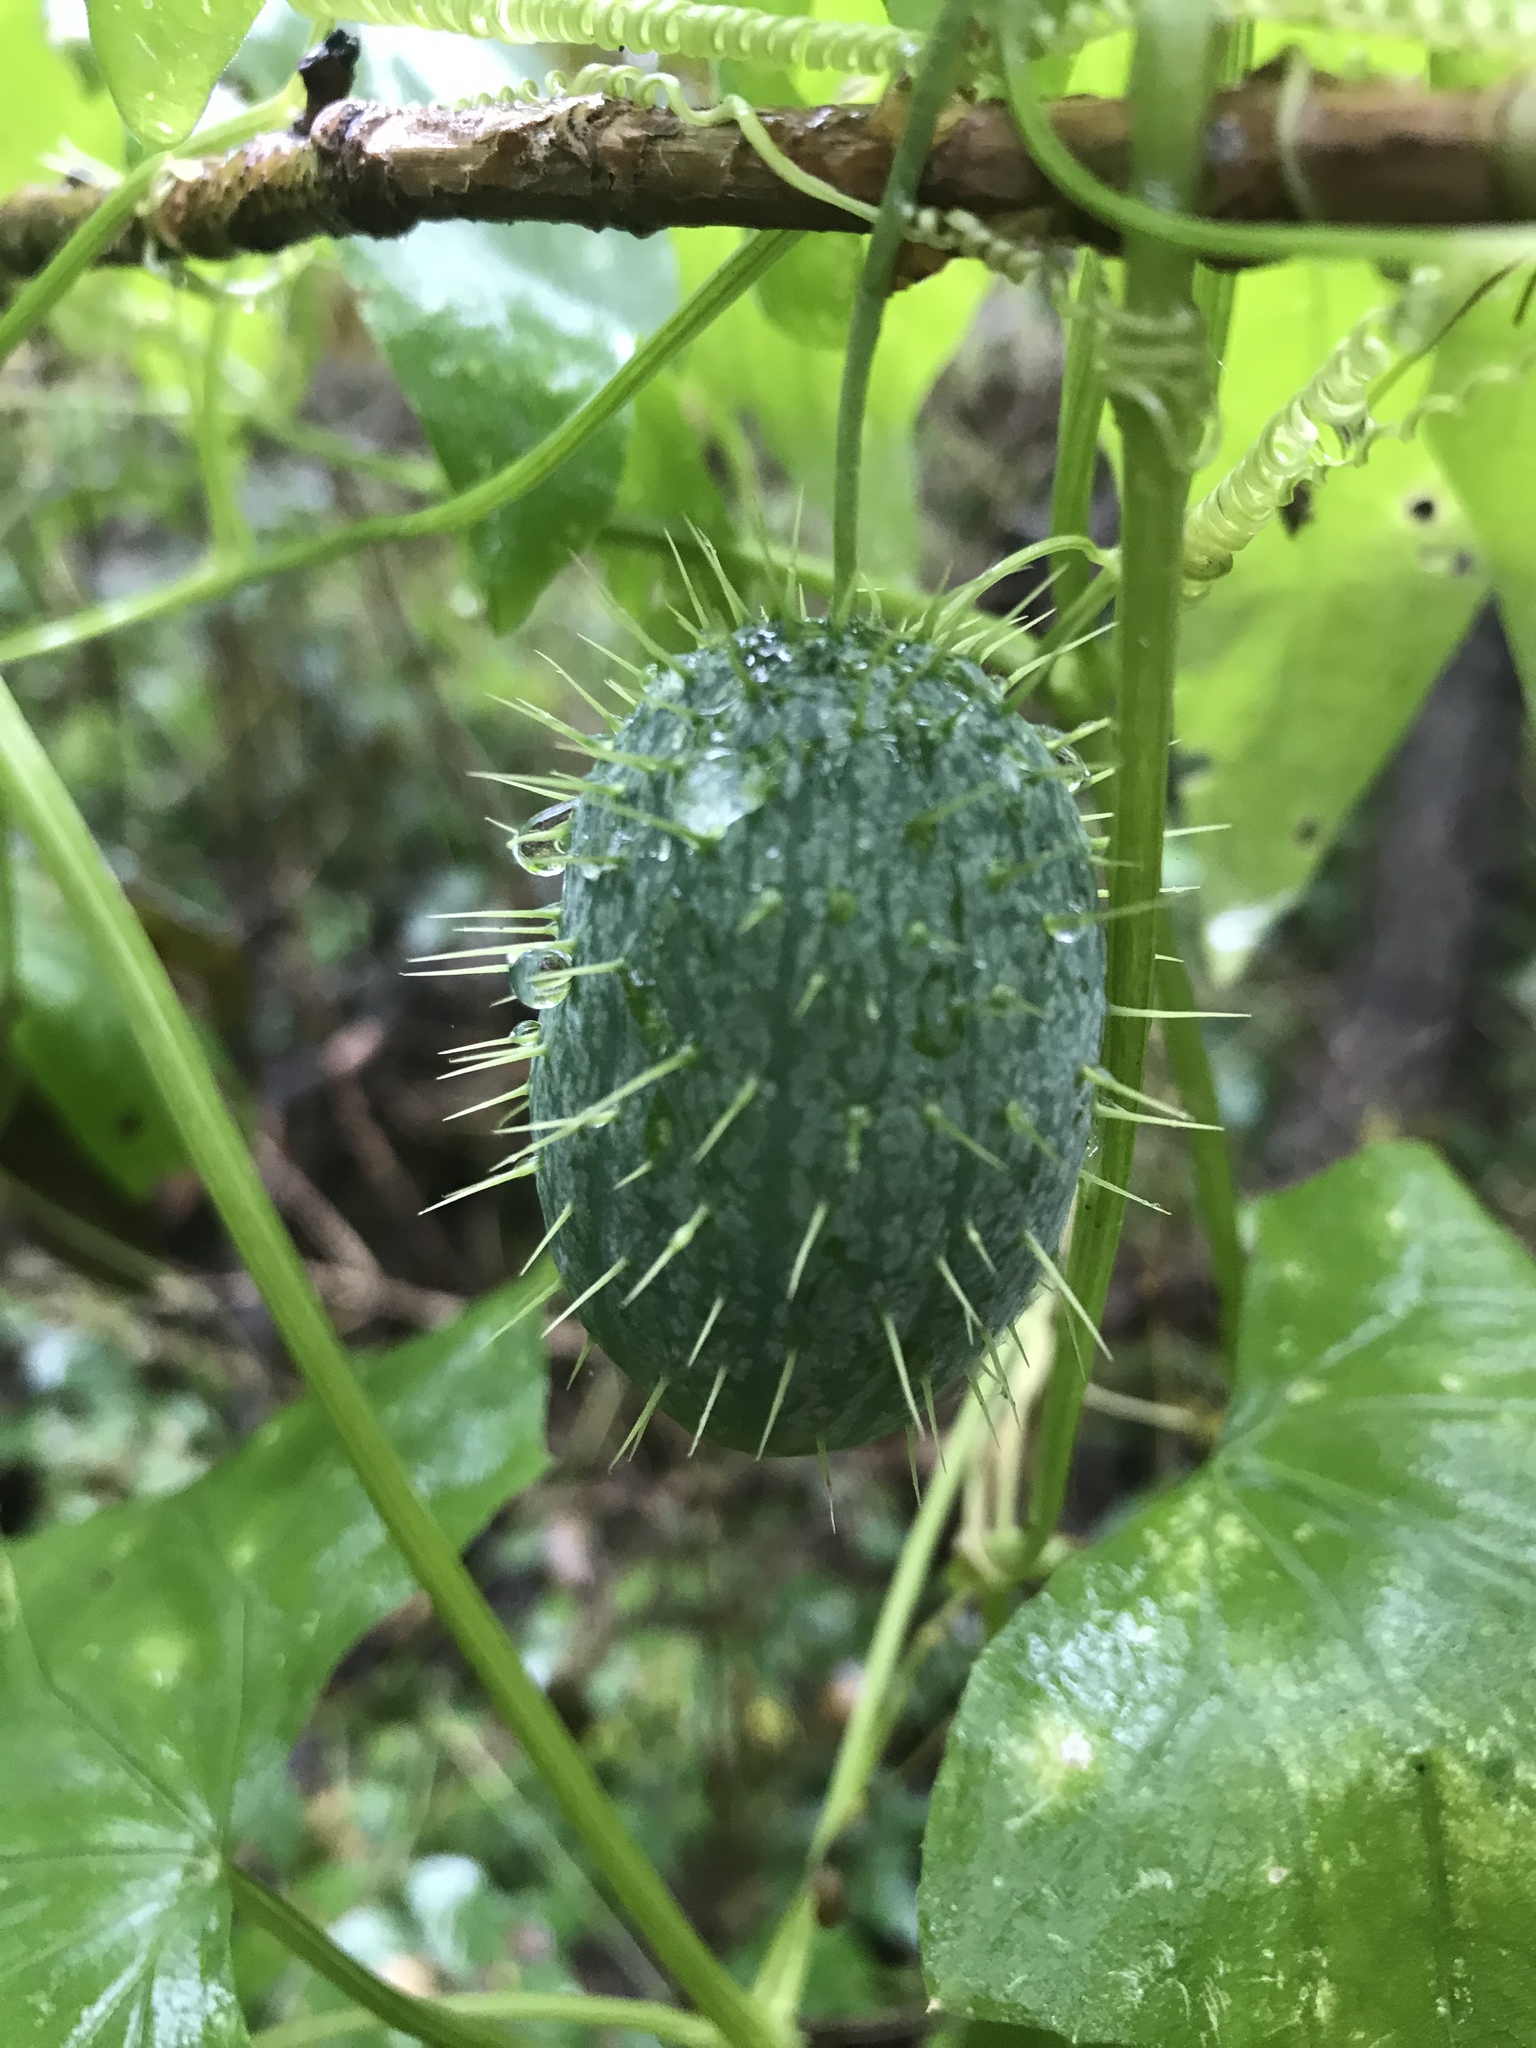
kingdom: Plantae
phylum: Tracheophyta
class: Magnoliopsida
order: Cucurbitales
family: Cucurbitaceae
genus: Echinocystis
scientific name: Echinocystis lobata
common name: Wild cucumber
